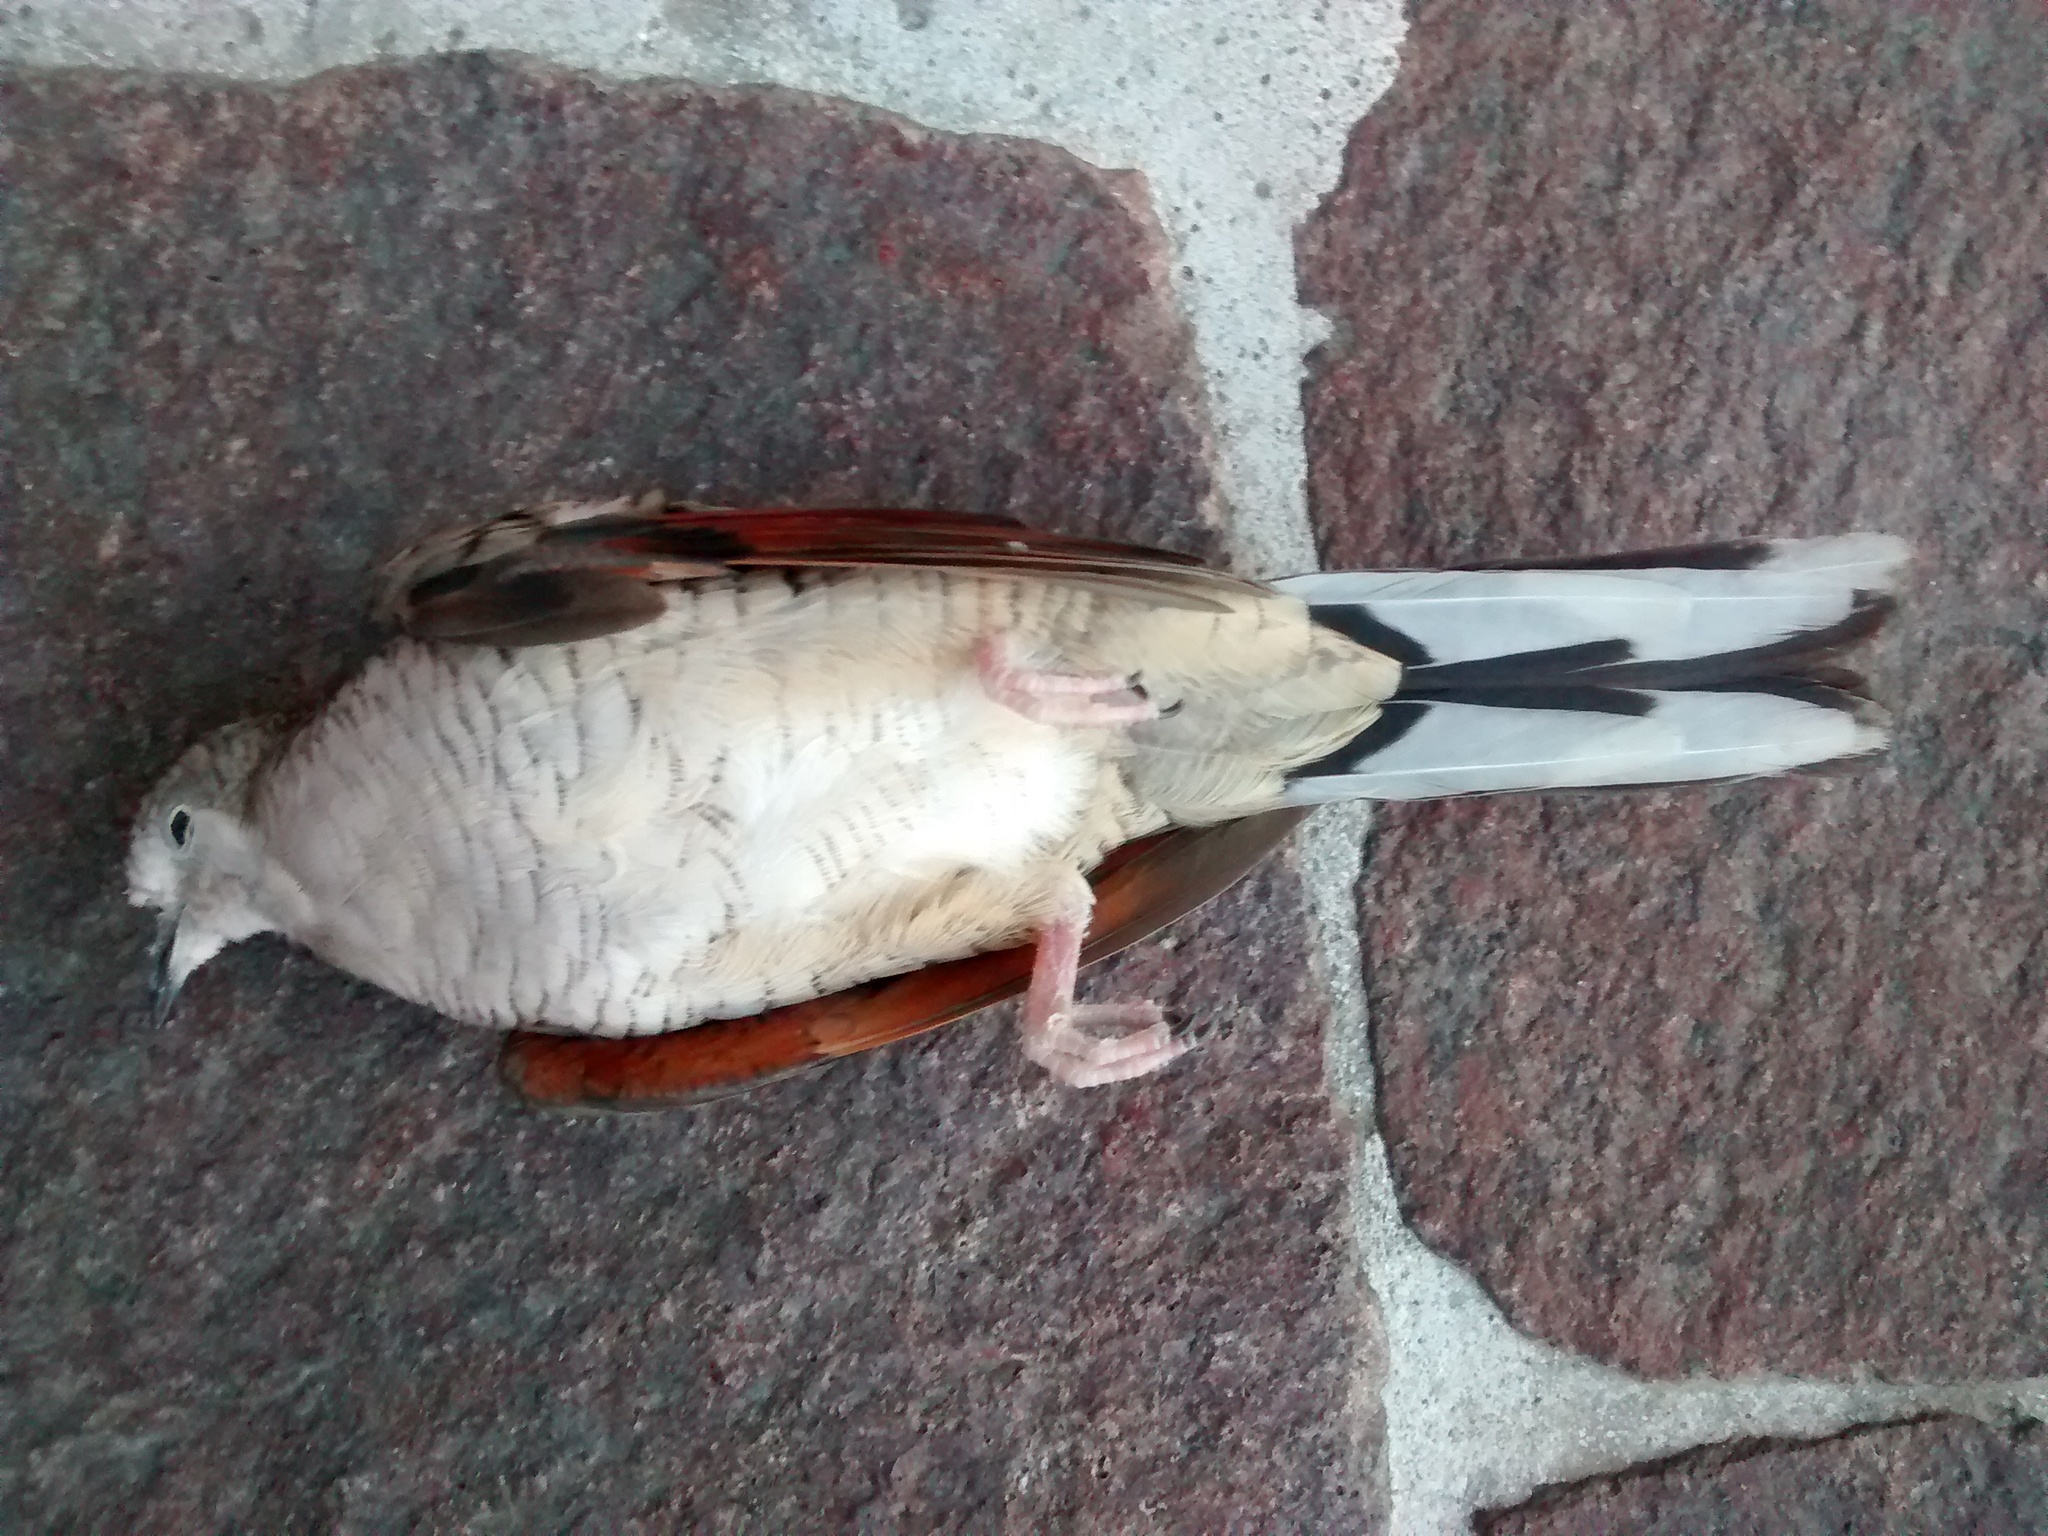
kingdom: Animalia
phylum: Chordata
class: Aves
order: Columbiformes
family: Columbidae
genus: Columbina
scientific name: Columbina inca
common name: Inca dove
